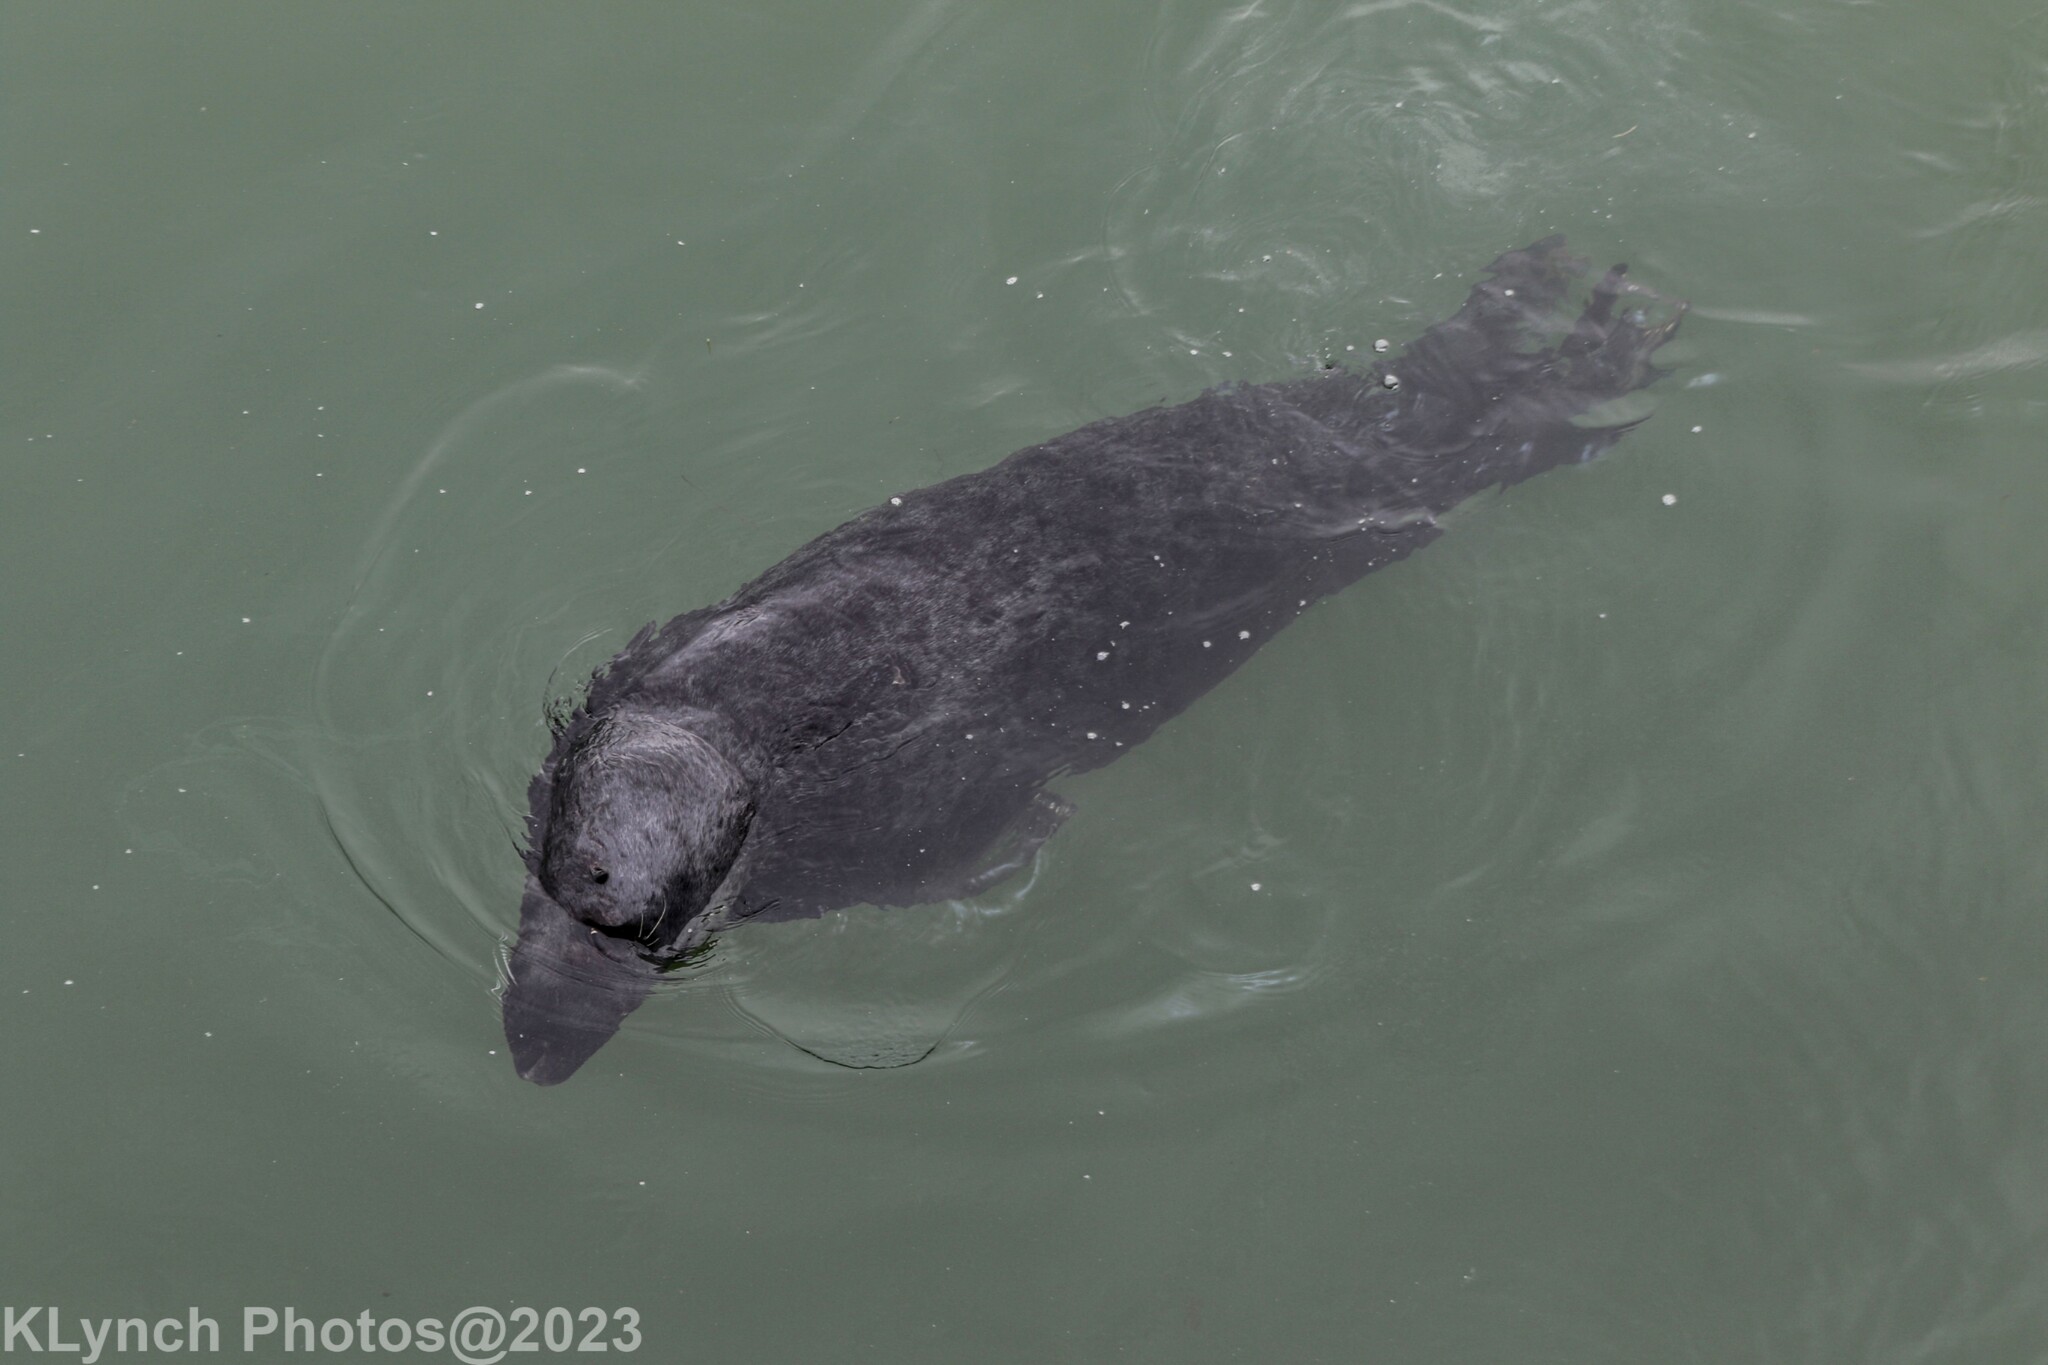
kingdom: Animalia
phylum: Chordata
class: Mammalia
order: Carnivora
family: Phocidae
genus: Halichoerus
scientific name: Halichoerus grypus
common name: Grey seal
